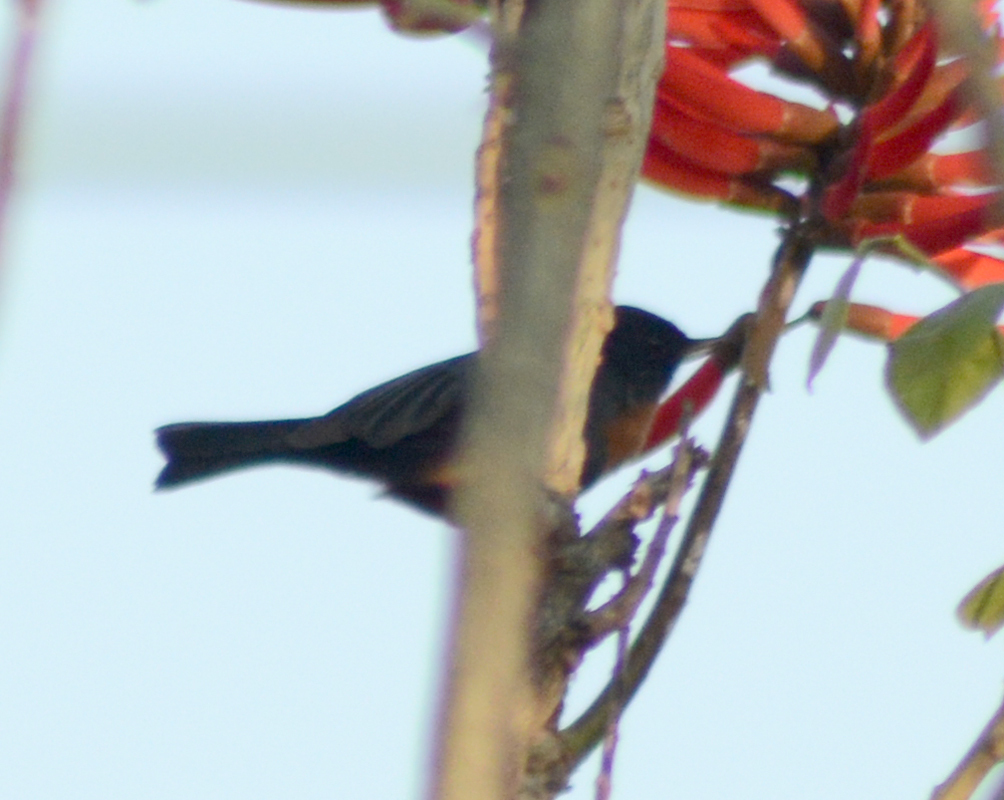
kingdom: Animalia
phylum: Chordata
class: Aves
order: Passeriformes
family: Thraupidae
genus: Diglossa
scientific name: Diglossa baritula
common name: Cinnamon-bellied flowerpiercer
